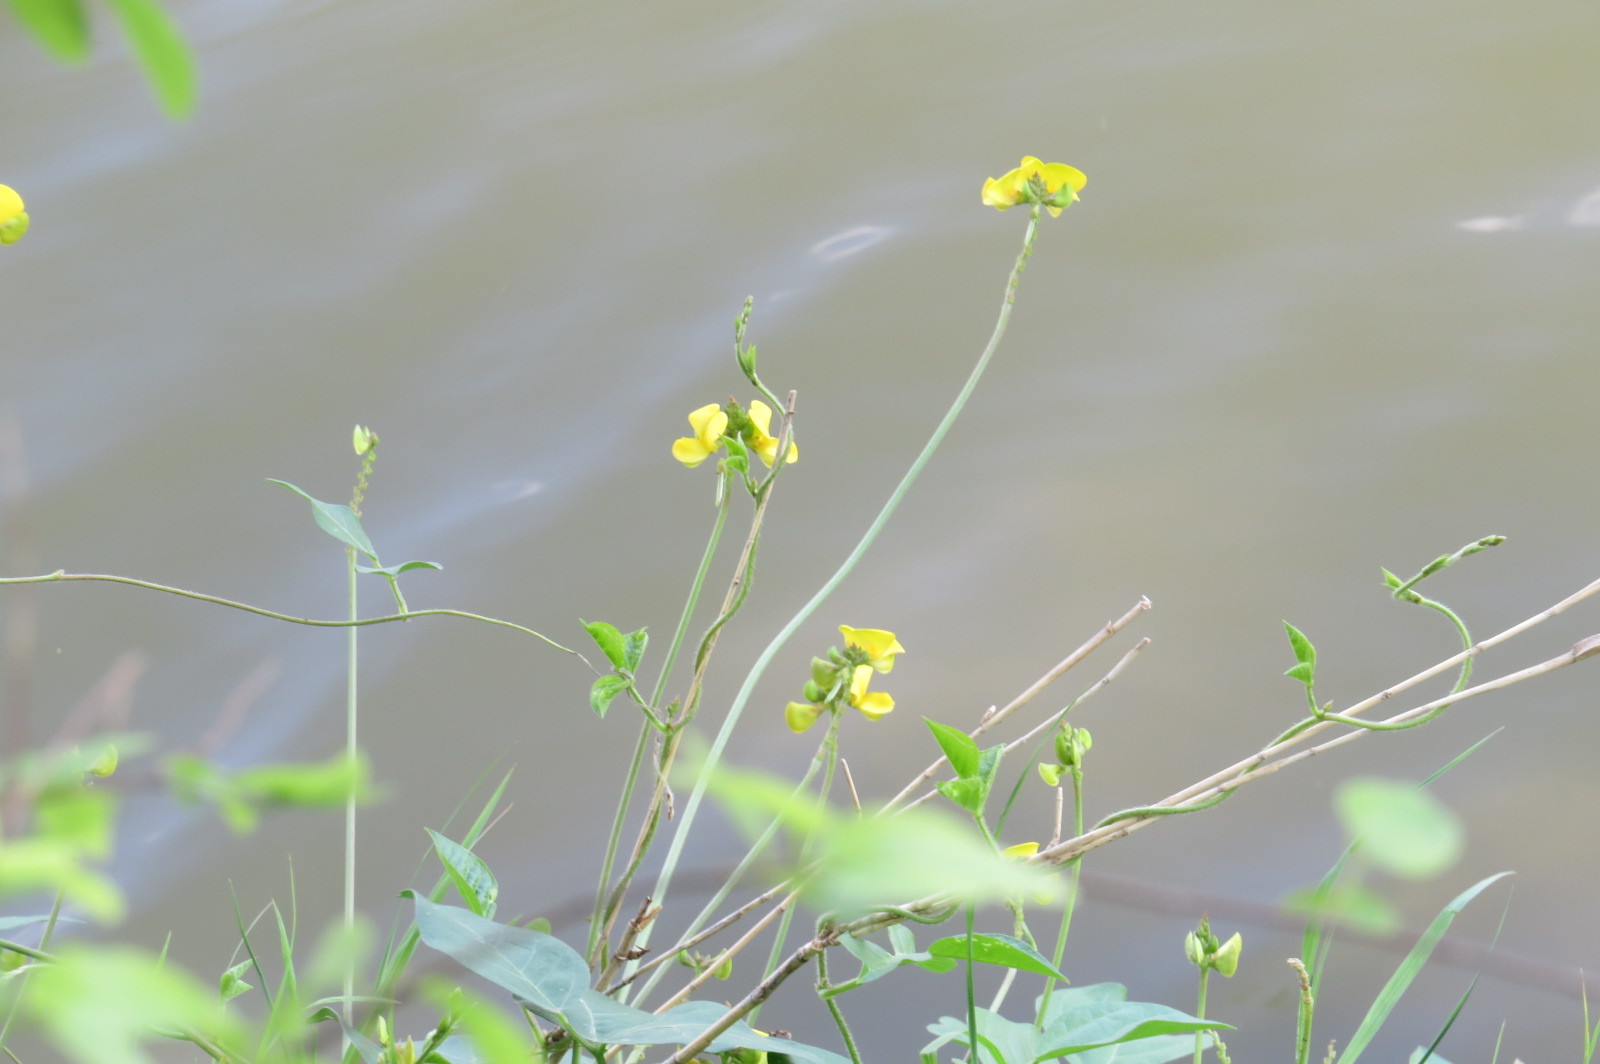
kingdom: Plantae
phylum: Tracheophyta
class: Magnoliopsida
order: Fabales
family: Fabaceae
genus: Vigna
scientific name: Vigna luteola
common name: Hairypod cowpea
